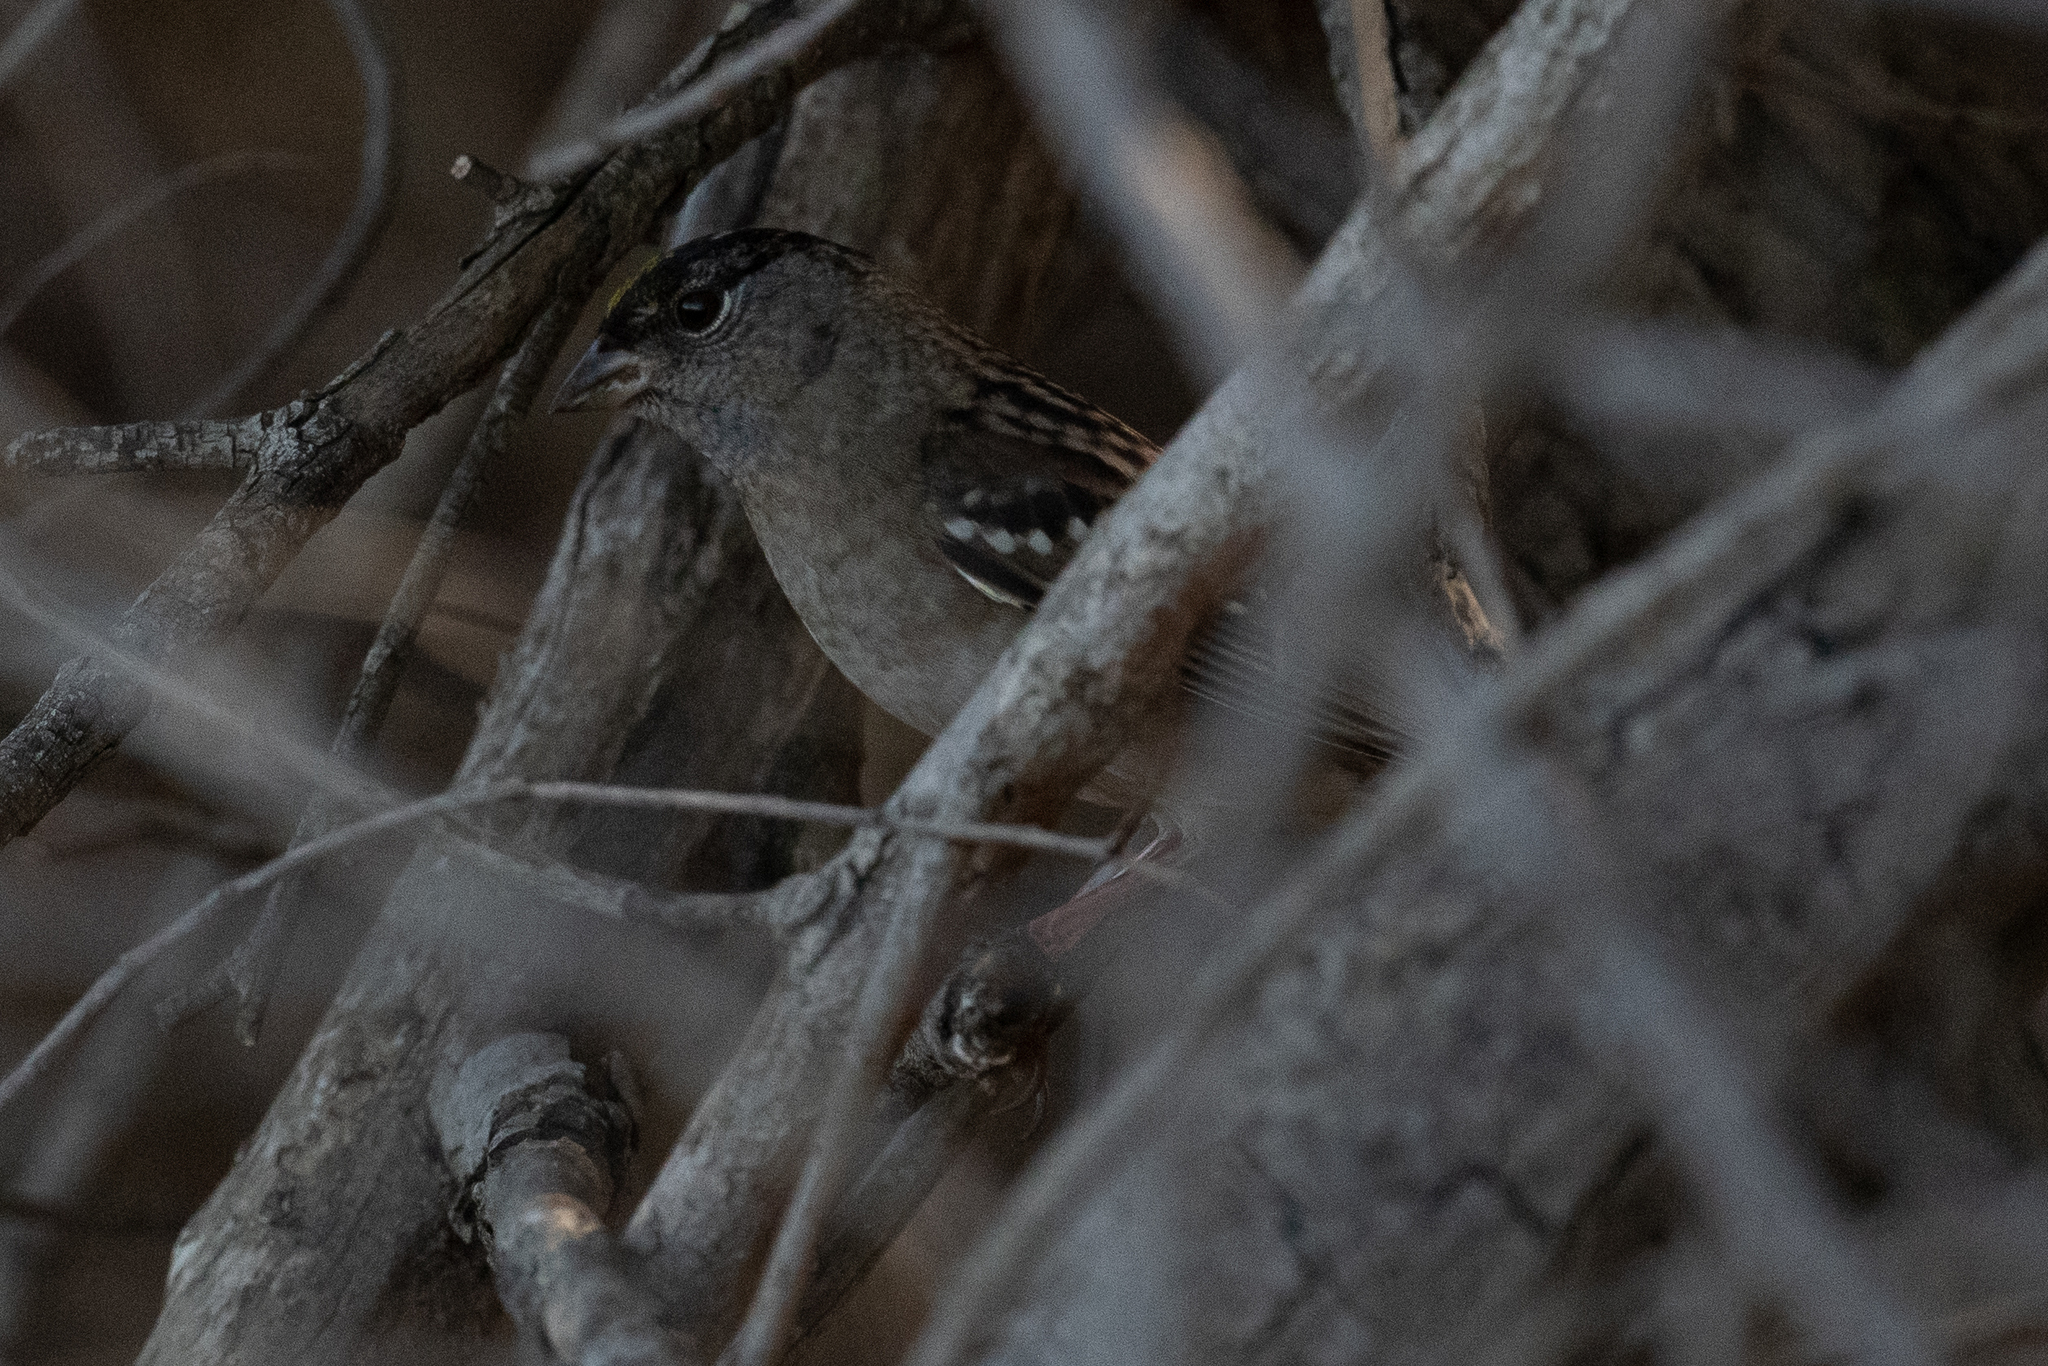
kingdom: Animalia
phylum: Chordata
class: Aves
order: Passeriformes
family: Passerellidae
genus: Zonotrichia
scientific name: Zonotrichia atricapilla
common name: Golden-crowned sparrow
